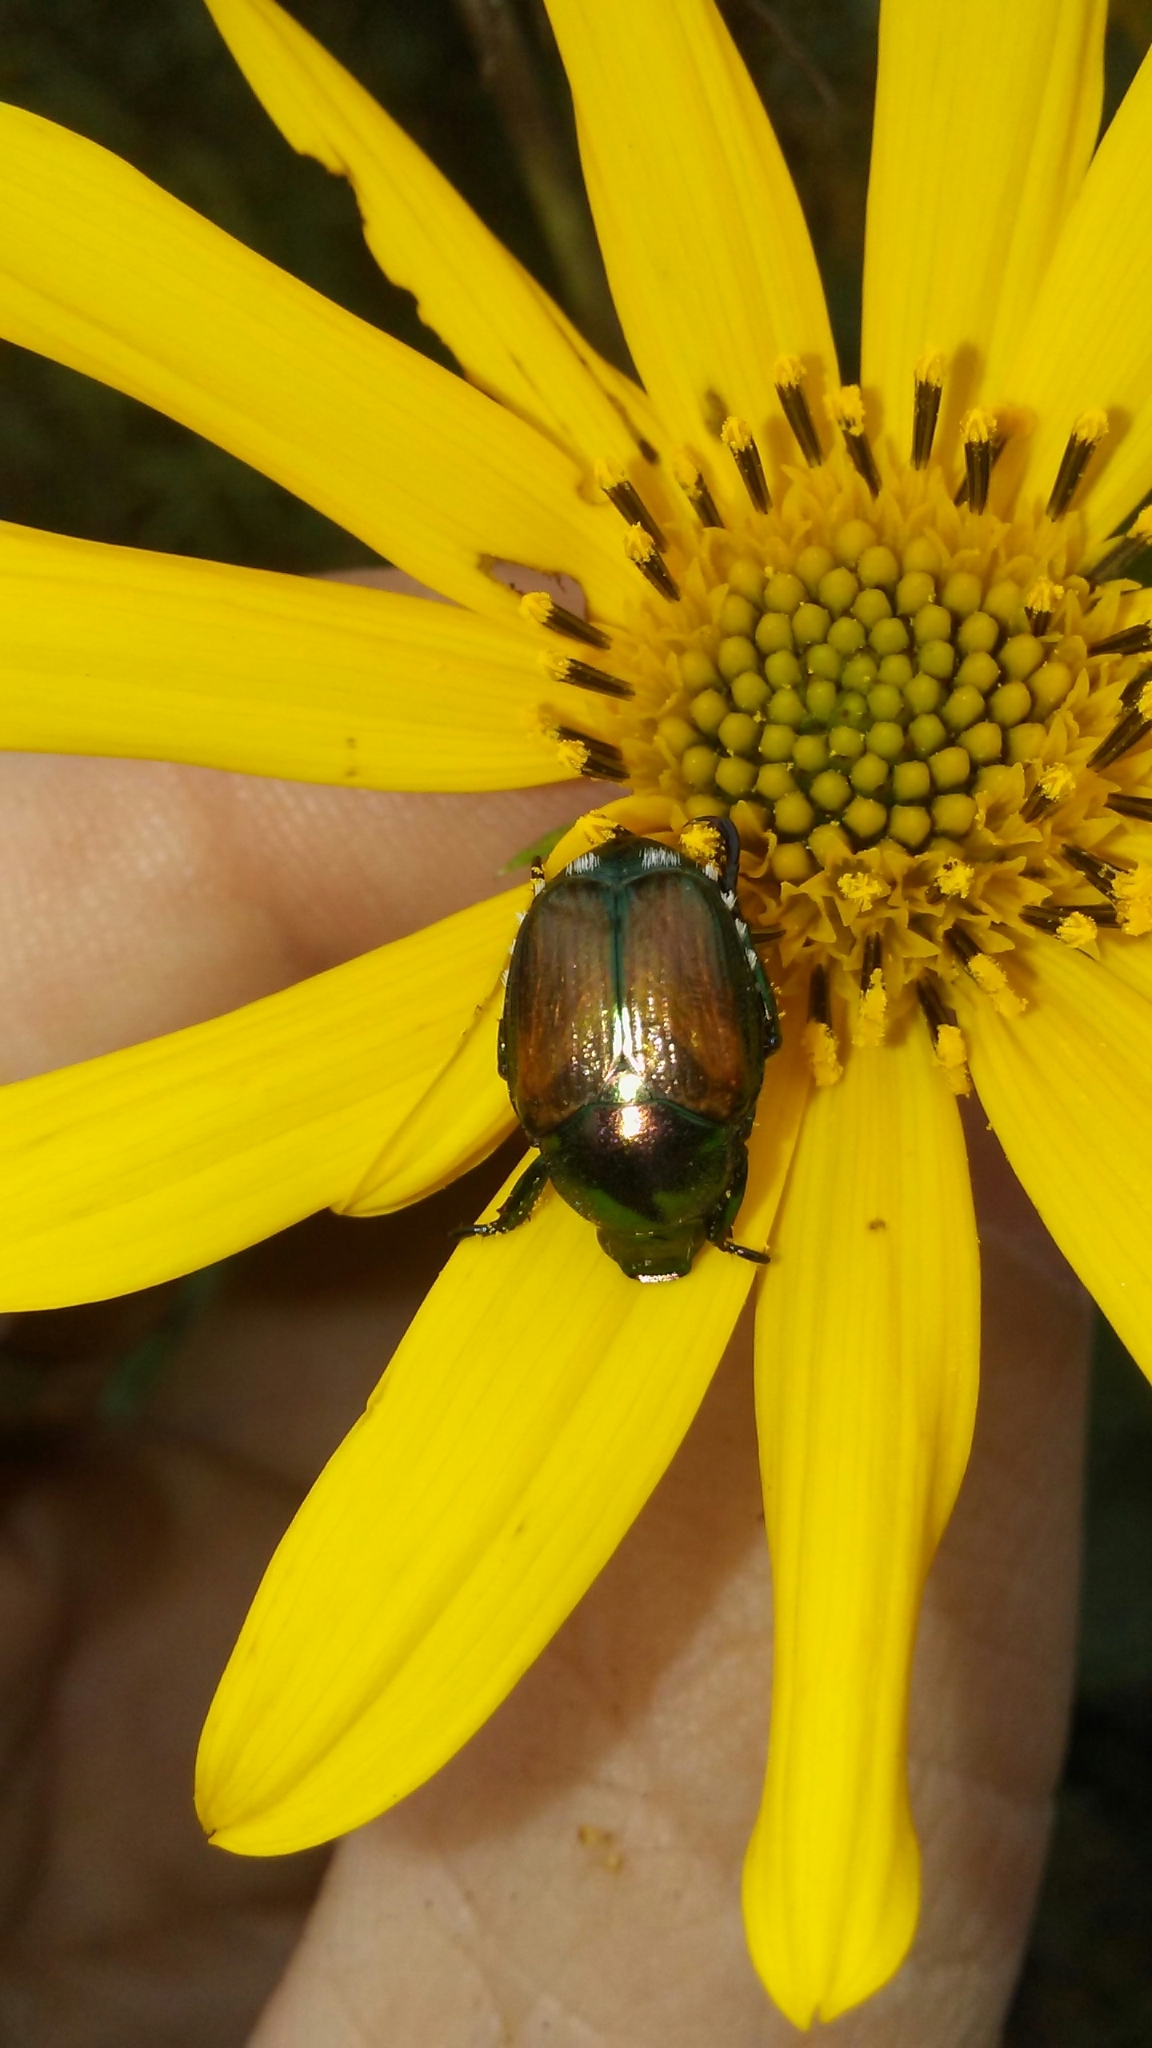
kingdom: Animalia
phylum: Arthropoda
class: Insecta
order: Coleoptera
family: Scarabaeidae
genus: Popillia
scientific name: Popillia japonica
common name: Japanese beetle
